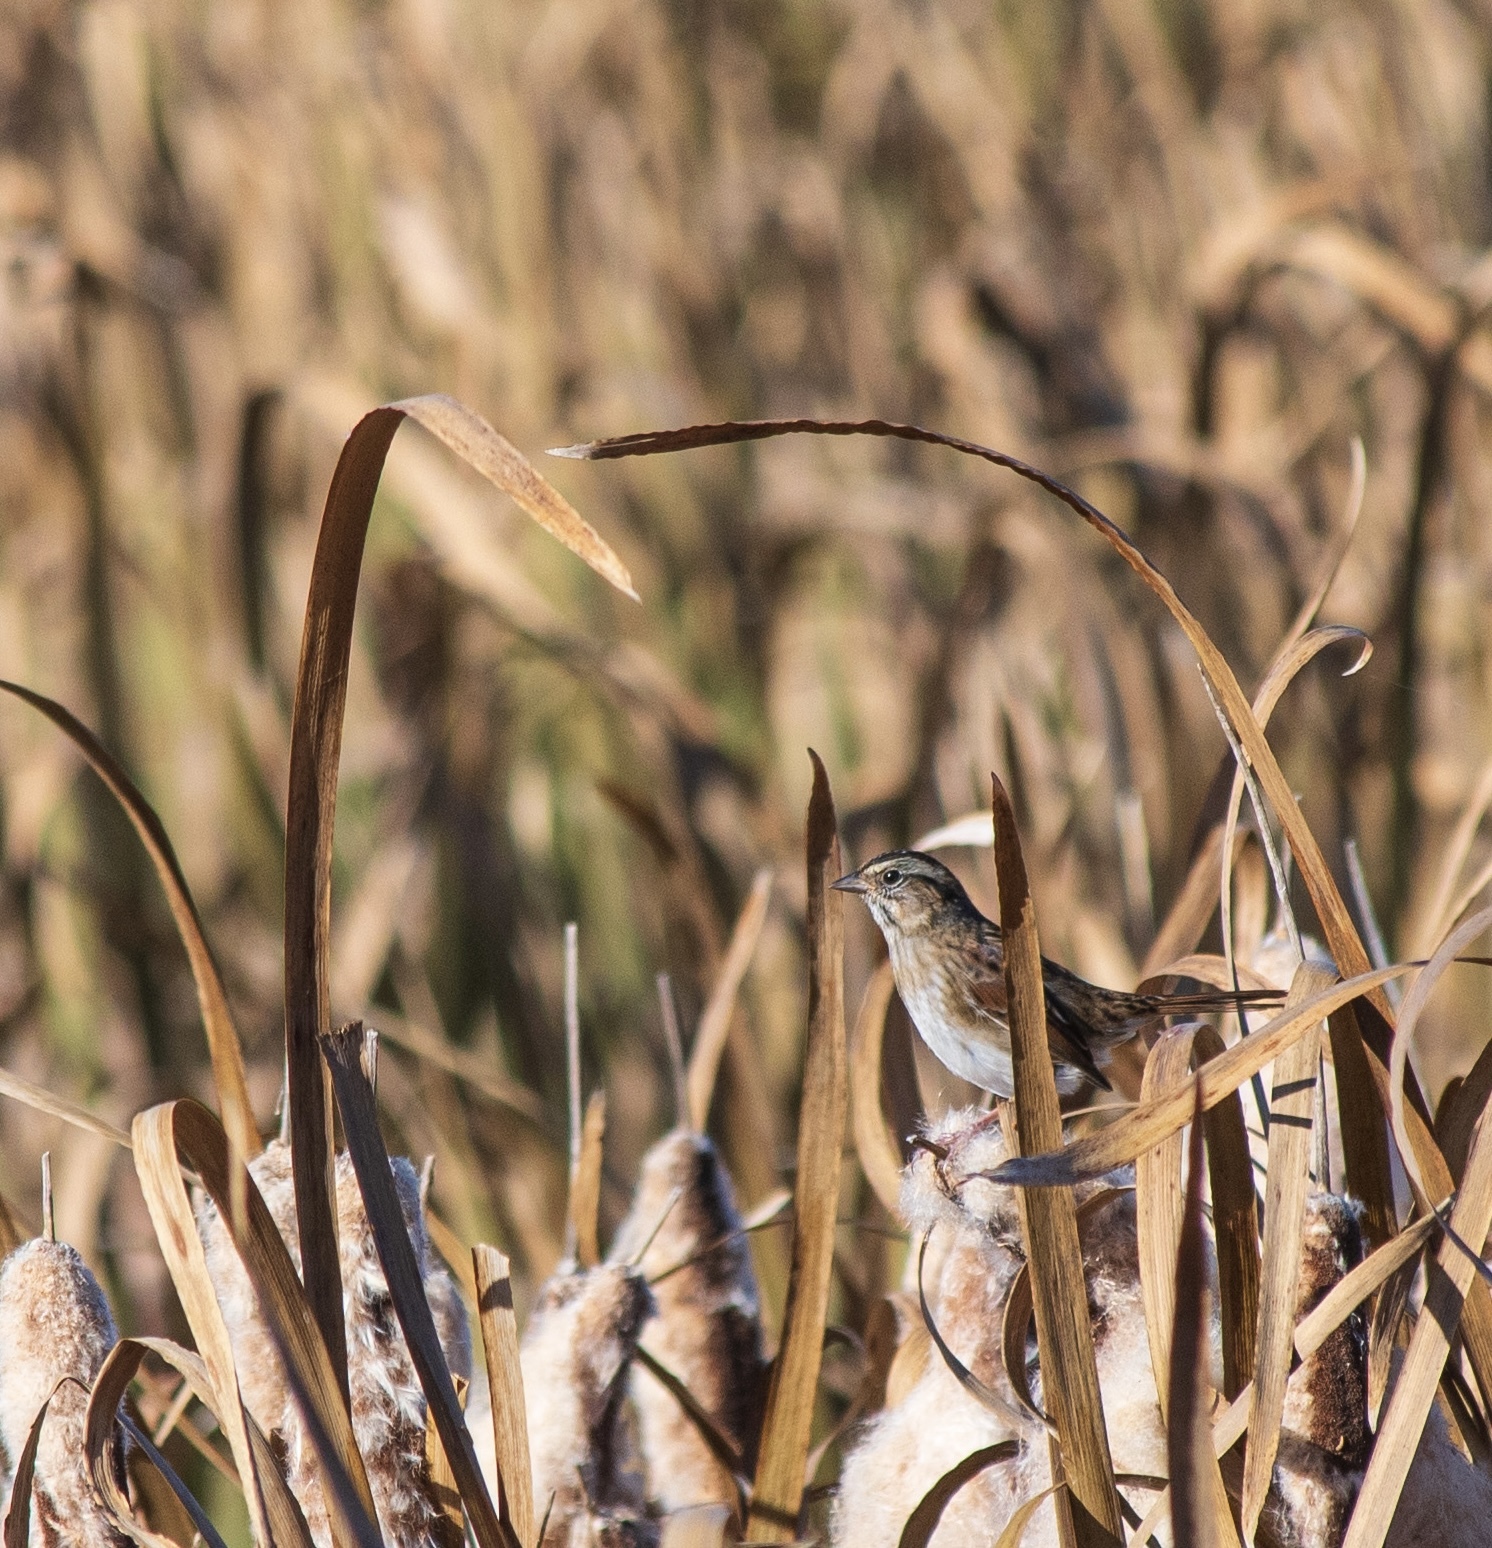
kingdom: Animalia
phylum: Chordata
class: Aves
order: Passeriformes
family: Passerellidae
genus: Melospiza
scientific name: Melospiza georgiana
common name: Swamp sparrow
